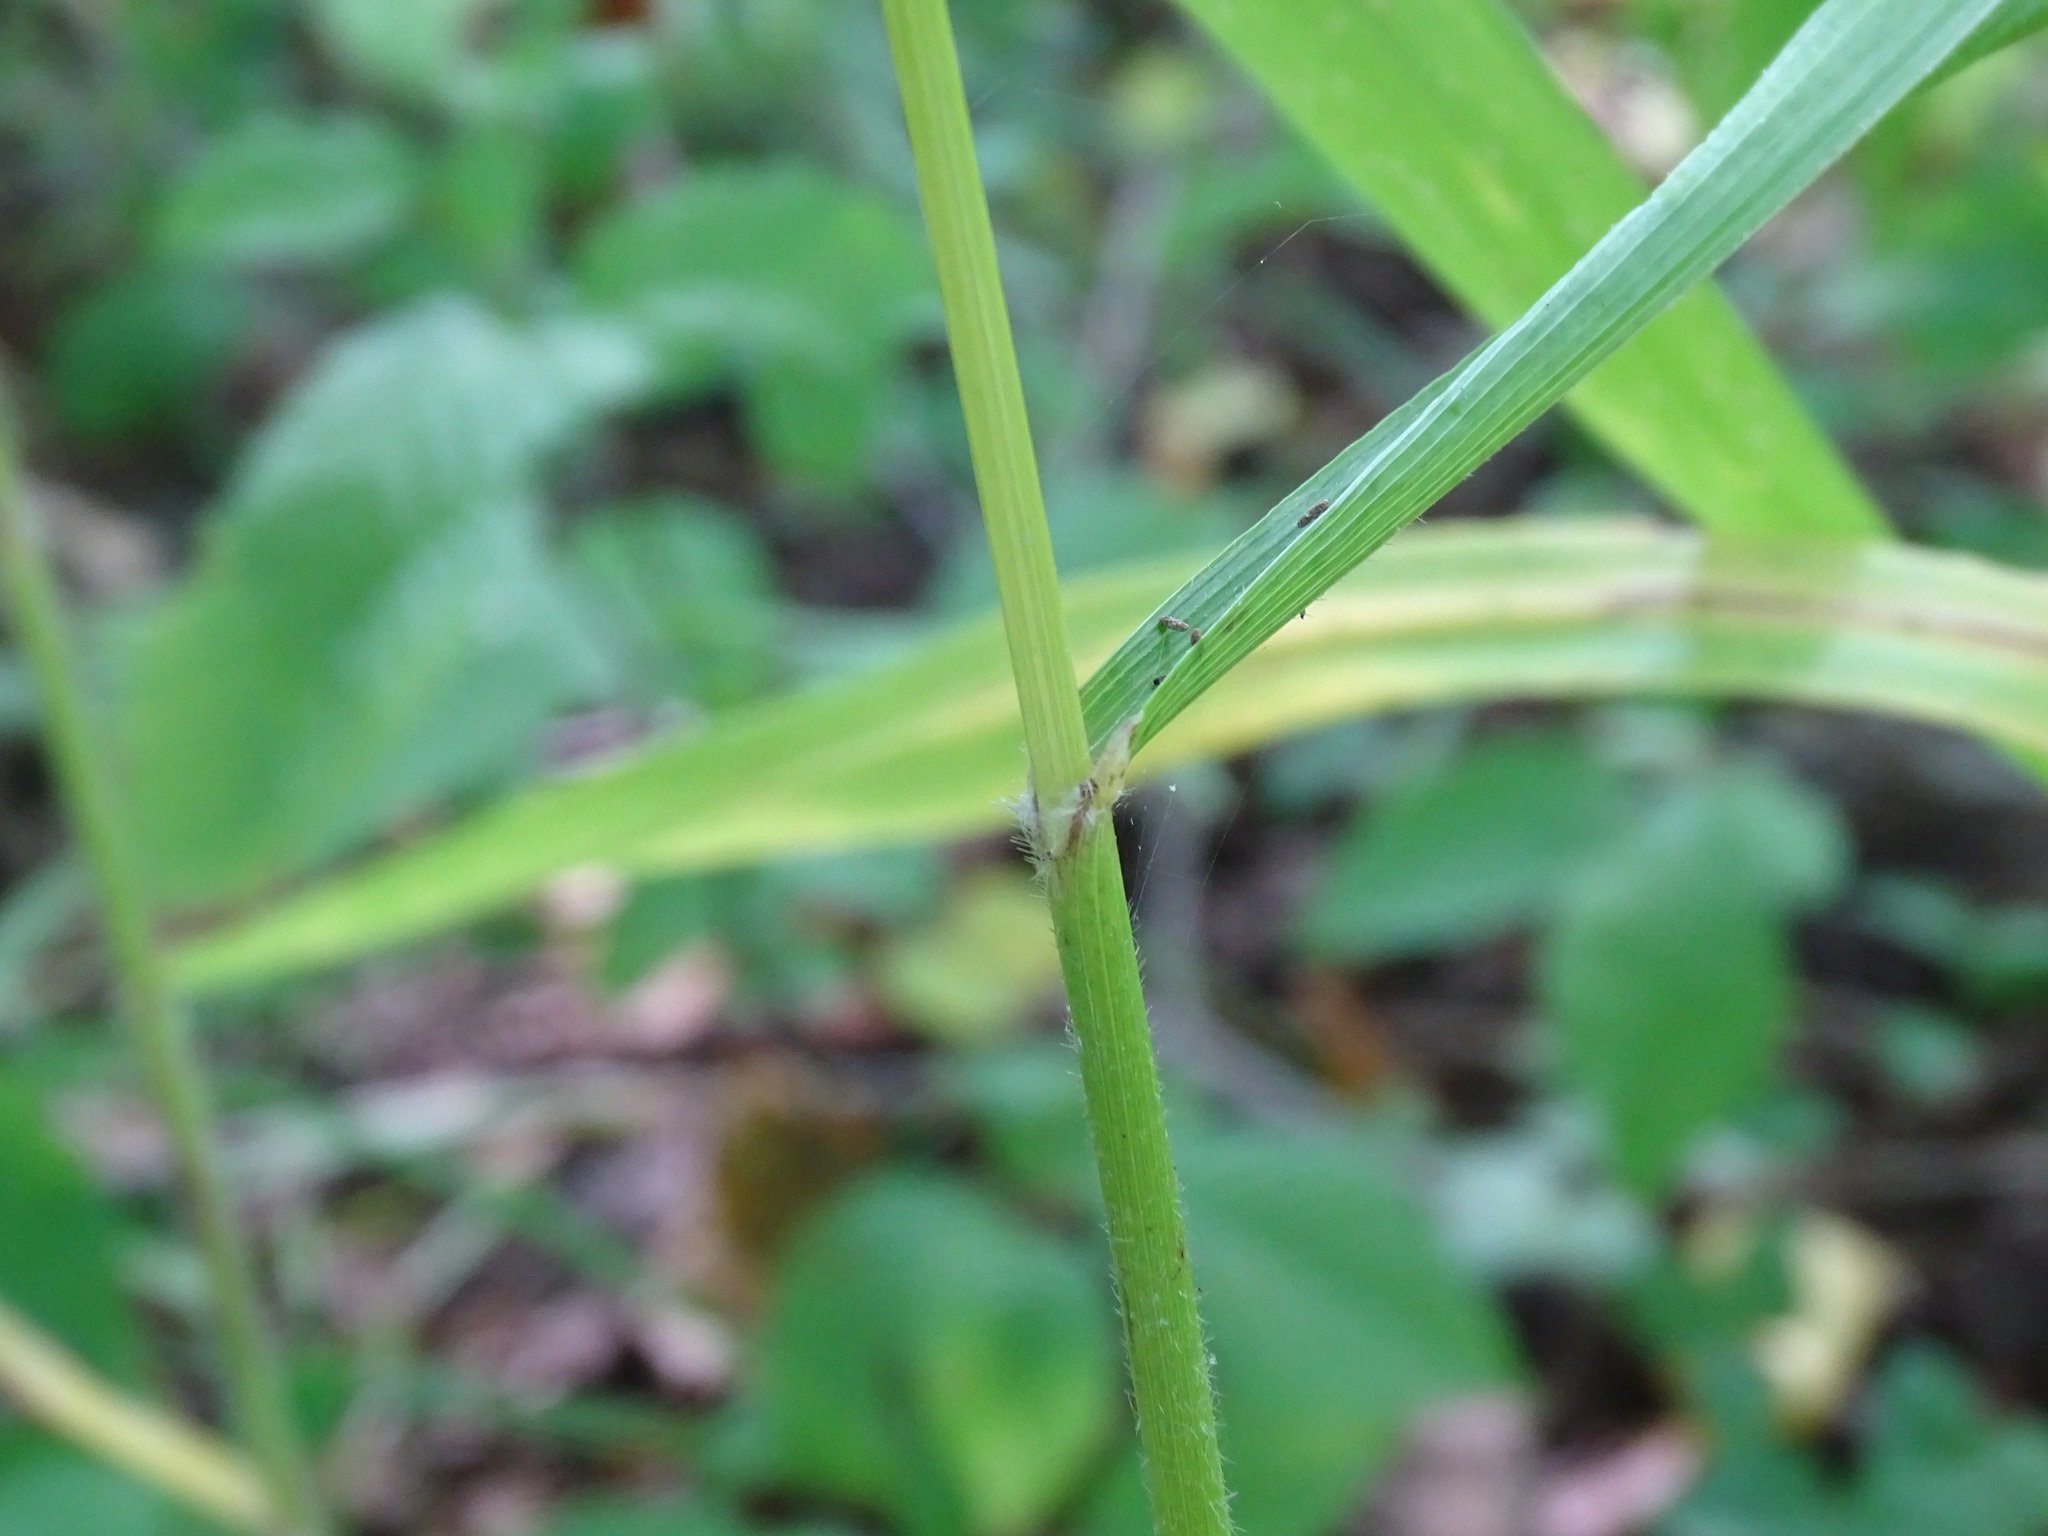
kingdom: Plantae
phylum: Tracheophyta
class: Liliopsida
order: Poales
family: Poaceae
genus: Bromus
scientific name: Bromus nottowayanus
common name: Nottoway valley brome
